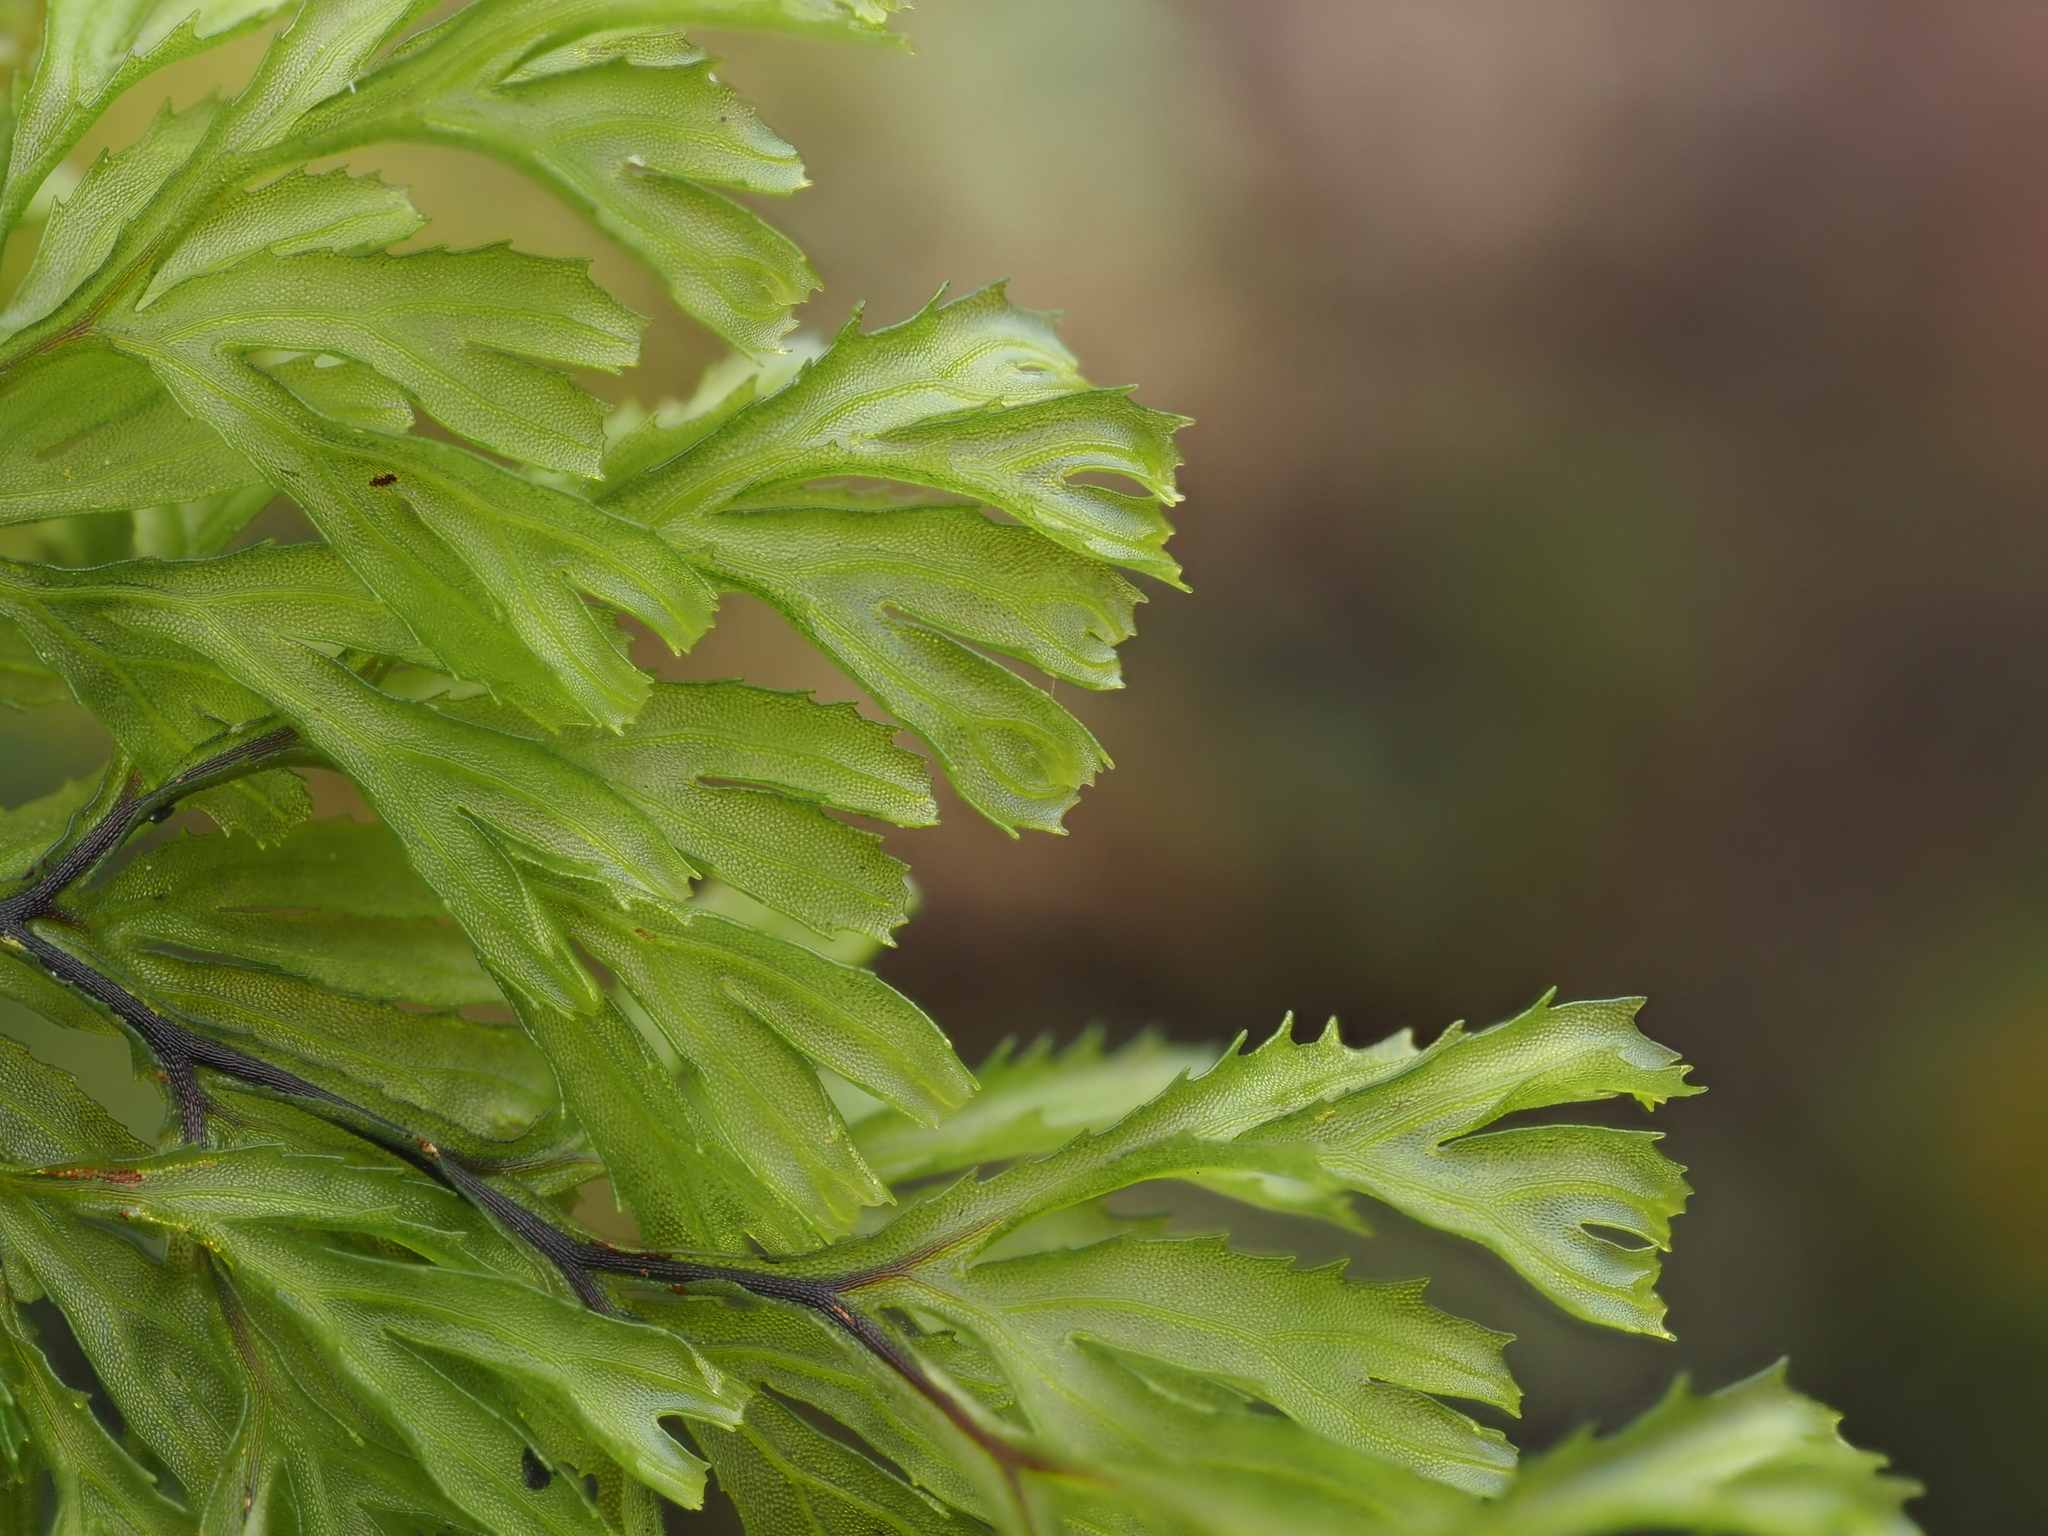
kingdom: Plantae
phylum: Tracheophyta
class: Polypodiopsida
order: Hymenophyllales
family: Hymenophyllaceae
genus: Hymenophyllum
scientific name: Hymenophyllum multifidum
